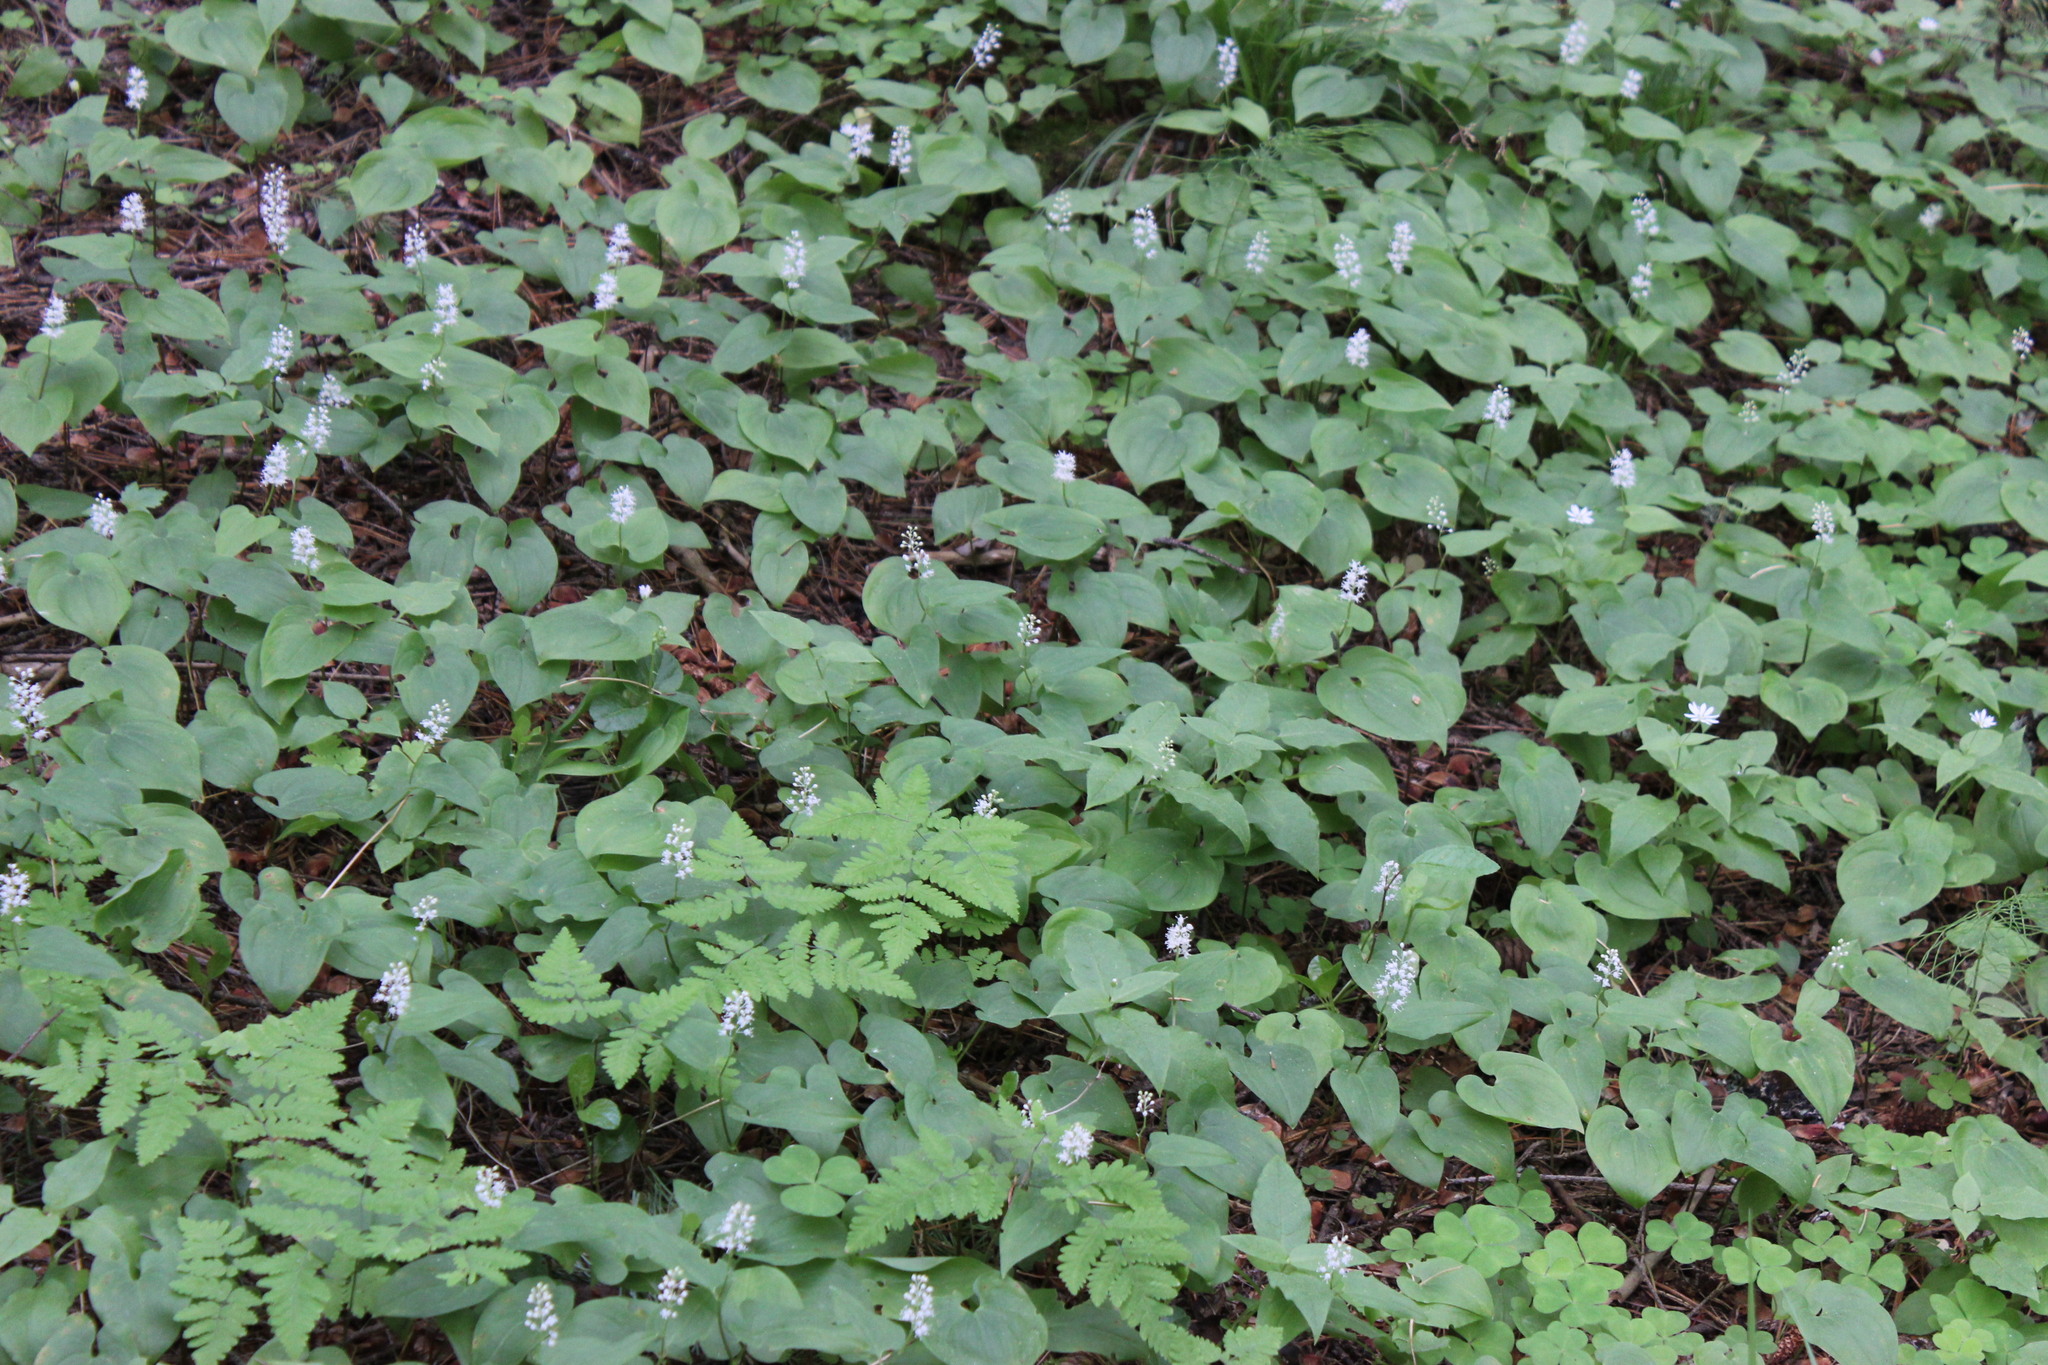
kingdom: Plantae
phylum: Tracheophyta
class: Liliopsida
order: Asparagales
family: Asparagaceae
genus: Maianthemum
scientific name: Maianthemum bifolium
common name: May lily
